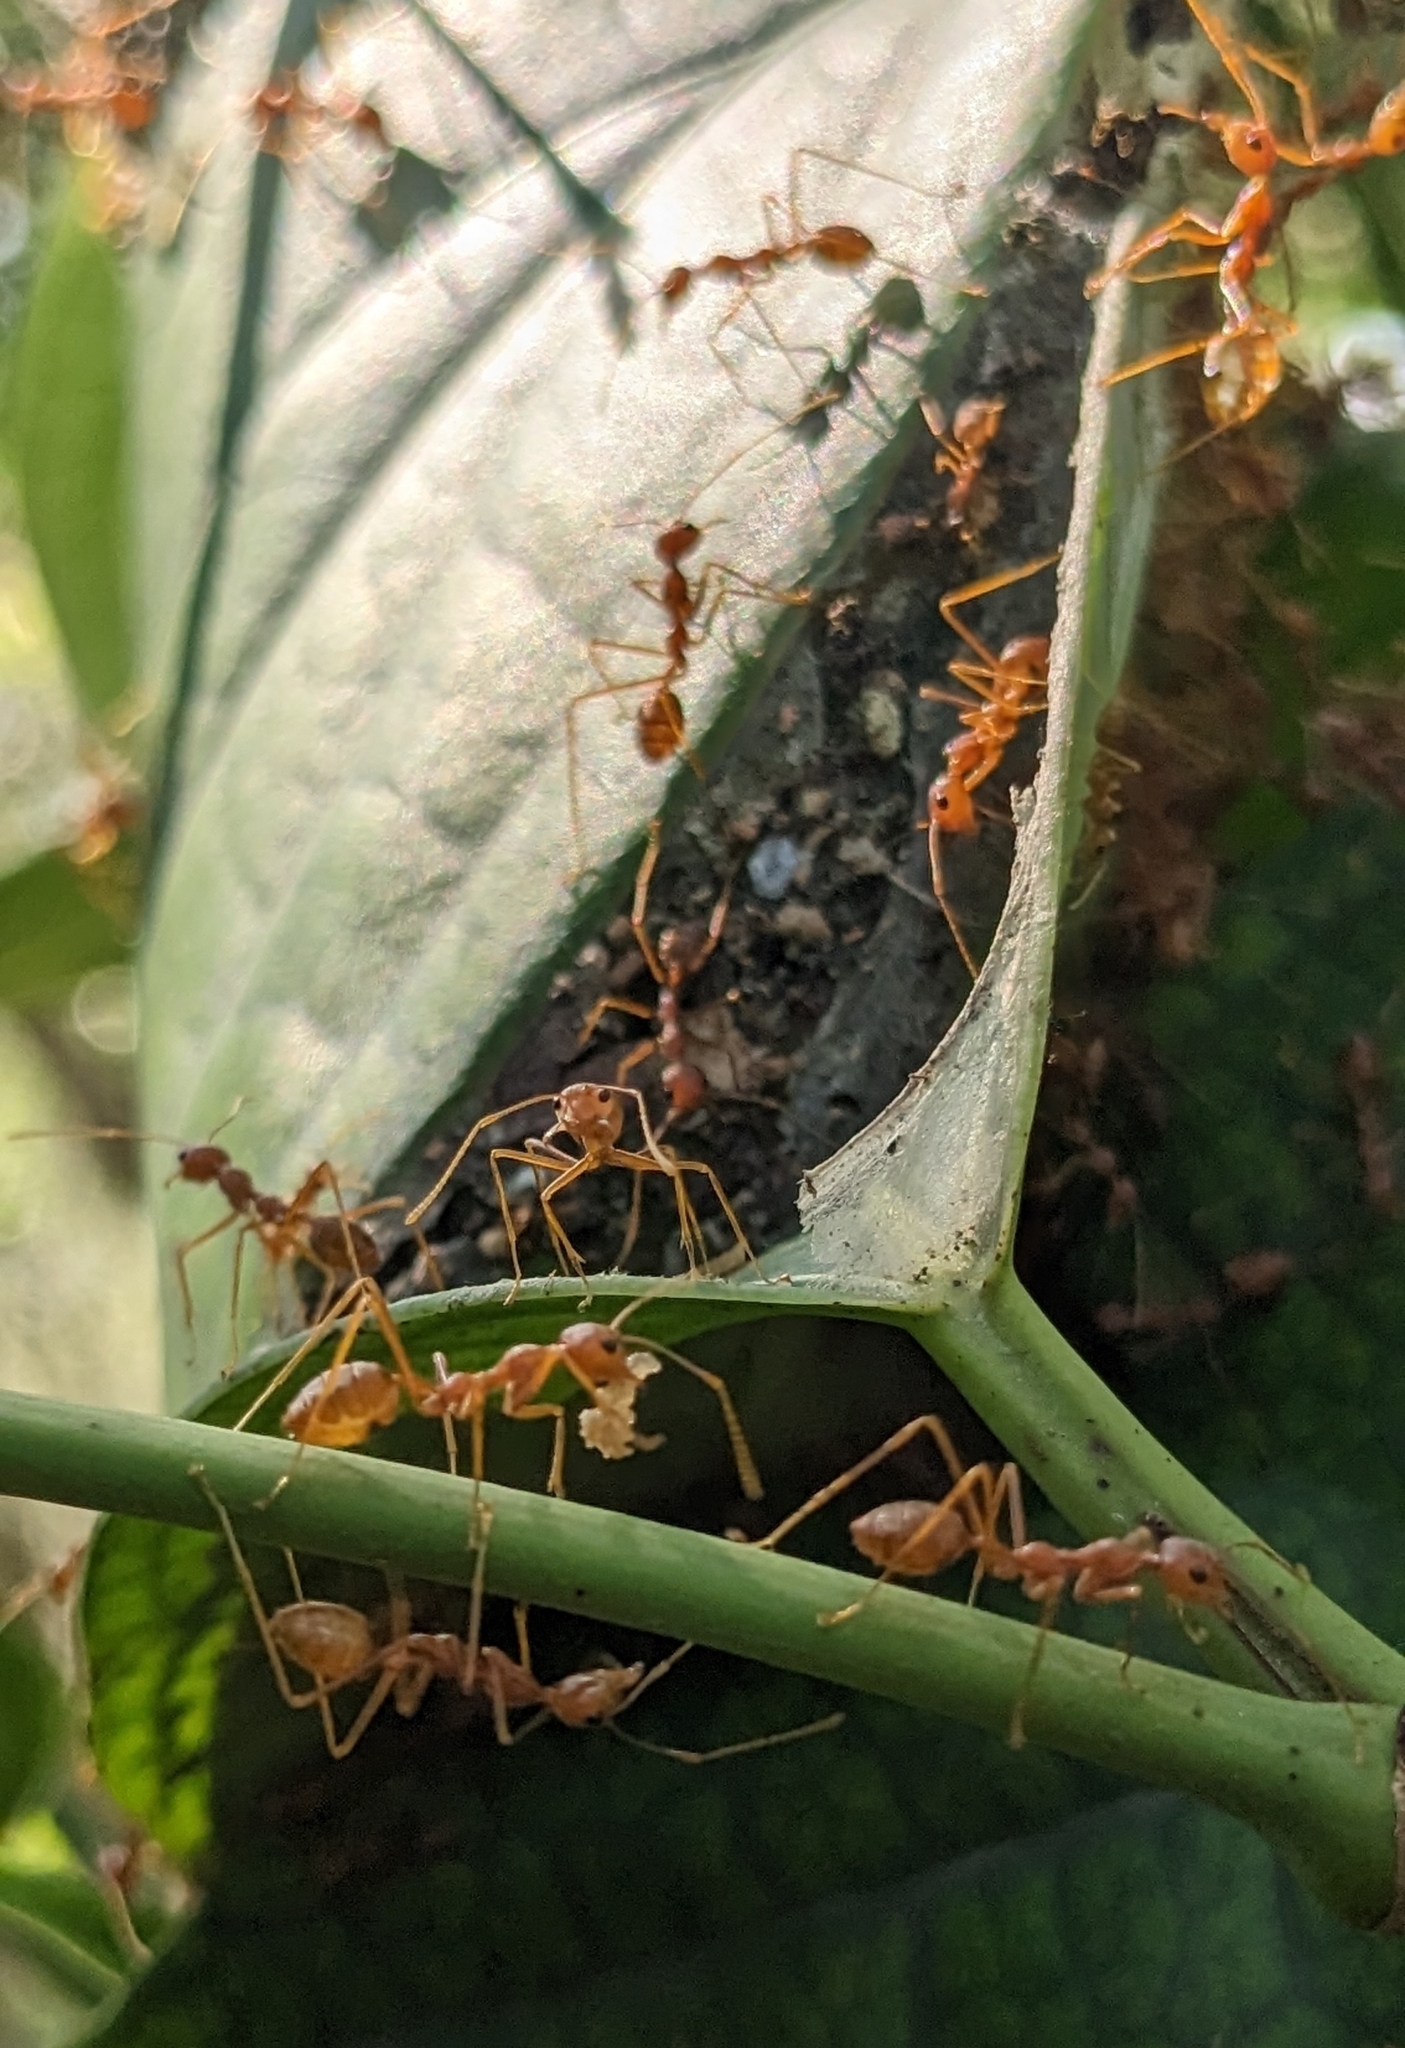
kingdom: Animalia
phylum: Arthropoda
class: Insecta
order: Hymenoptera
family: Formicidae
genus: Oecophylla
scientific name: Oecophylla smaragdina
